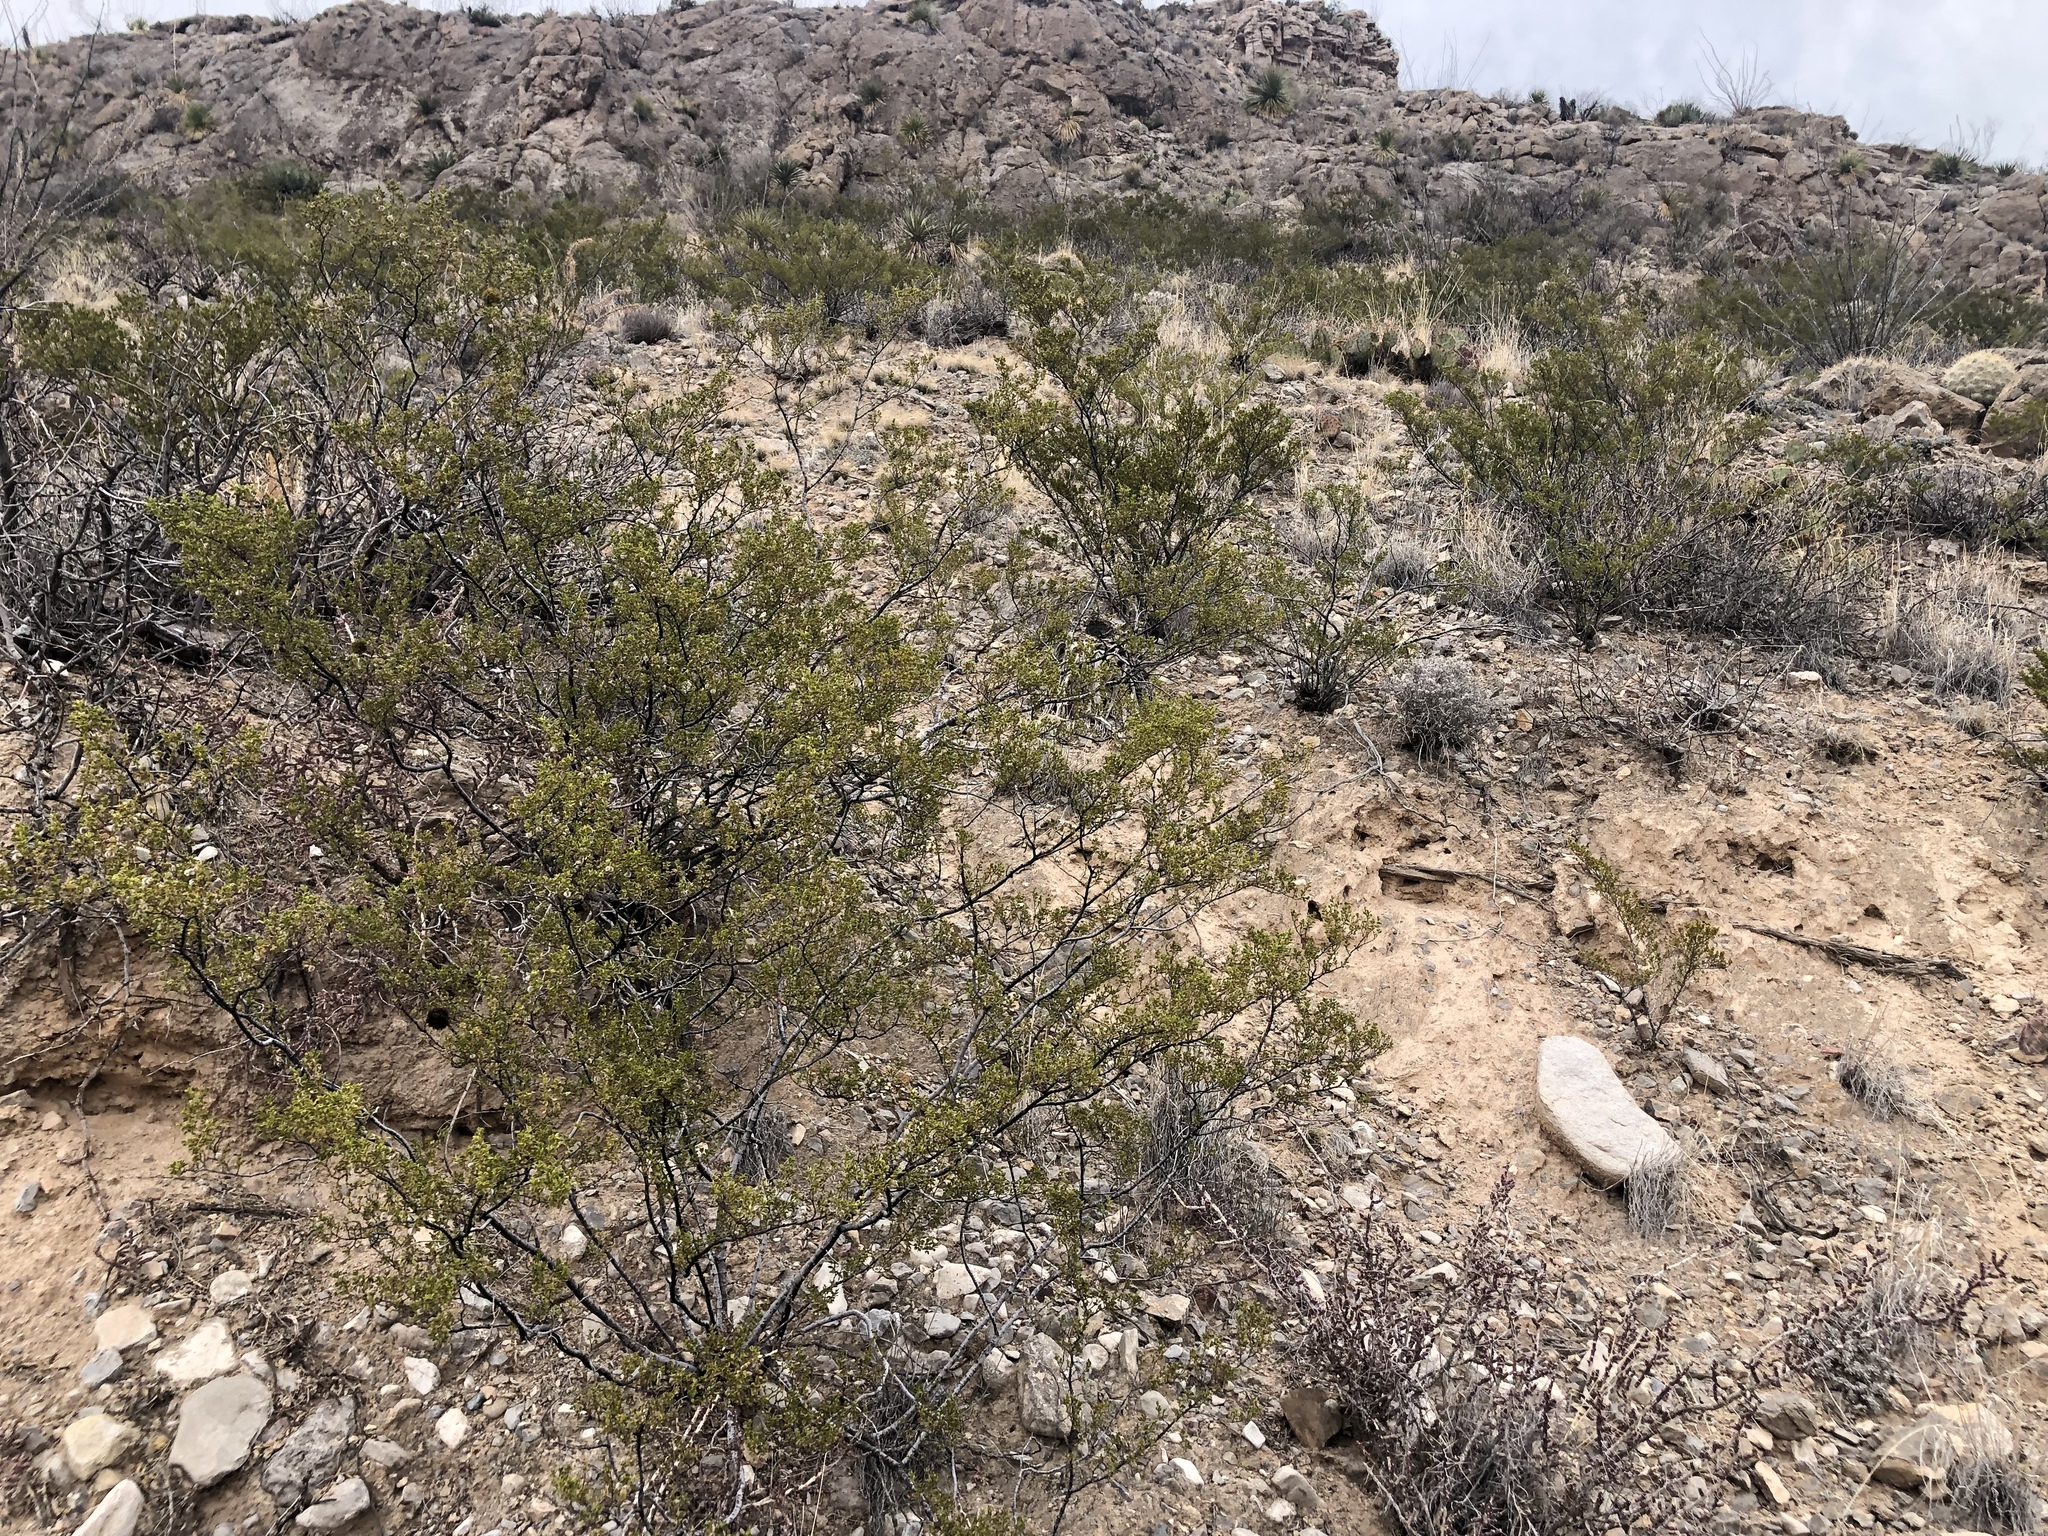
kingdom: Plantae
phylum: Tracheophyta
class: Magnoliopsida
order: Zygophyllales
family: Zygophyllaceae
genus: Larrea
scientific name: Larrea tridentata
